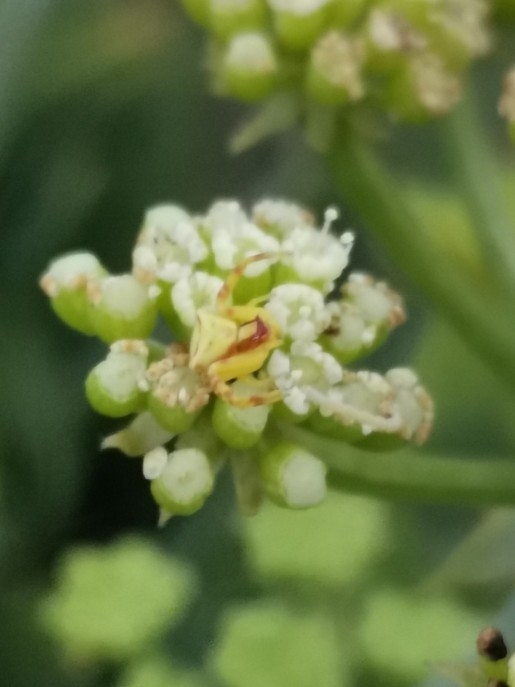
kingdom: Animalia
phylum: Arthropoda
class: Arachnida
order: Araneae
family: Thomisidae
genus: Thomisus
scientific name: Thomisus onustus
